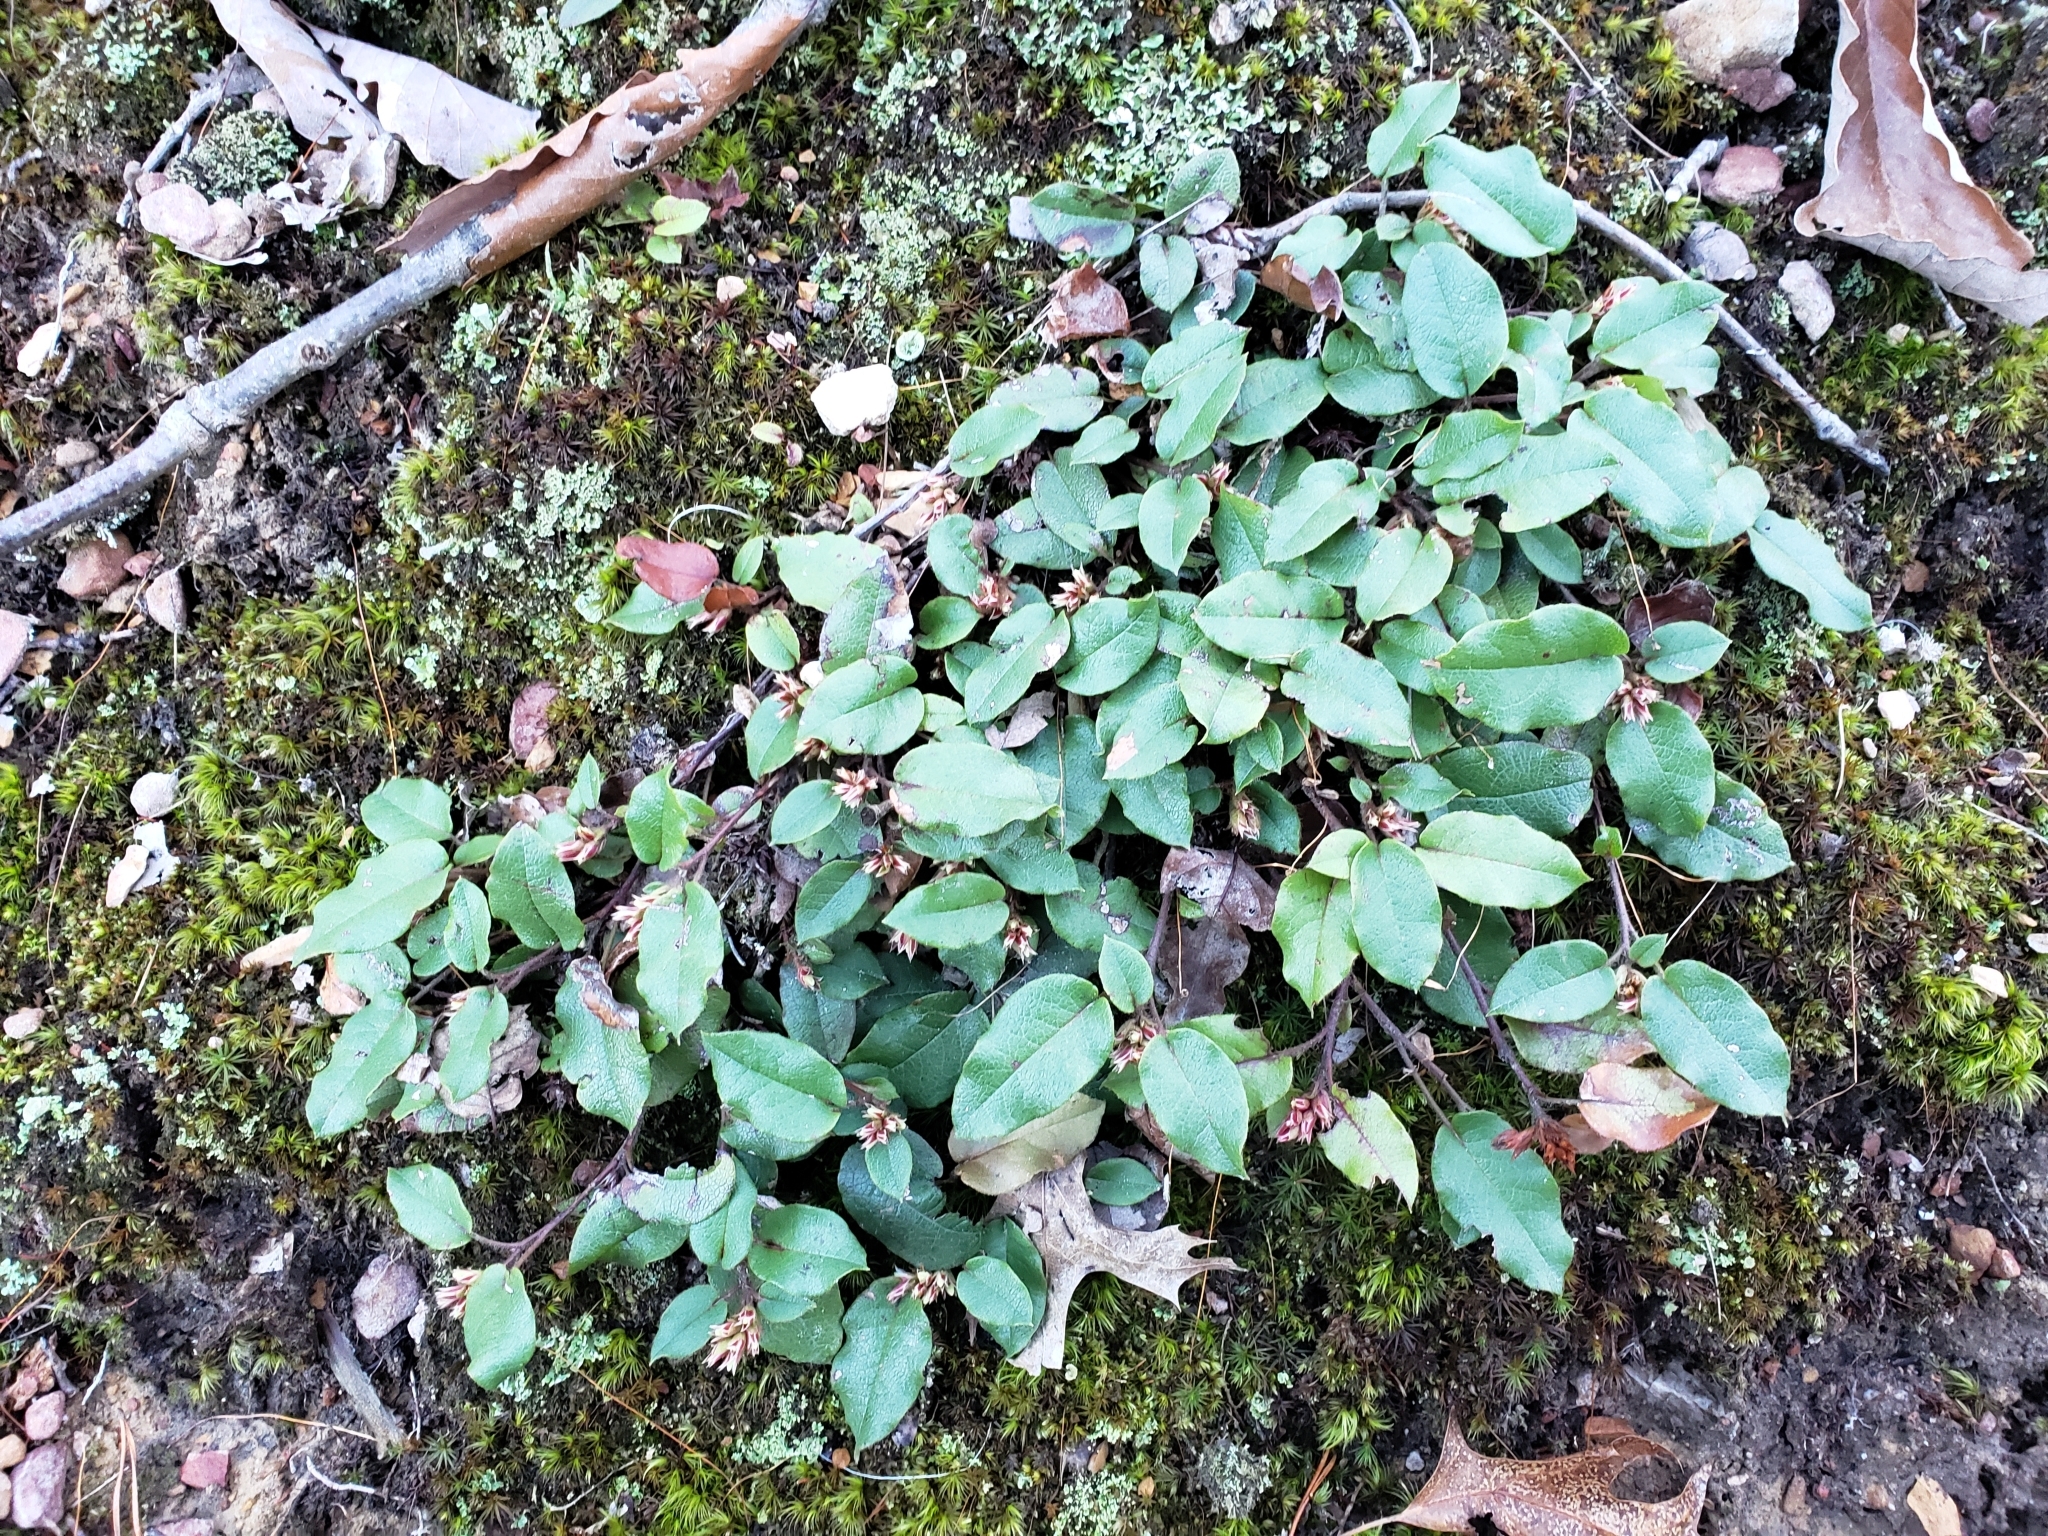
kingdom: Plantae
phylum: Tracheophyta
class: Magnoliopsida
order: Ericales
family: Ericaceae
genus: Epigaea
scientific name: Epigaea repens
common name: Gravelroot
